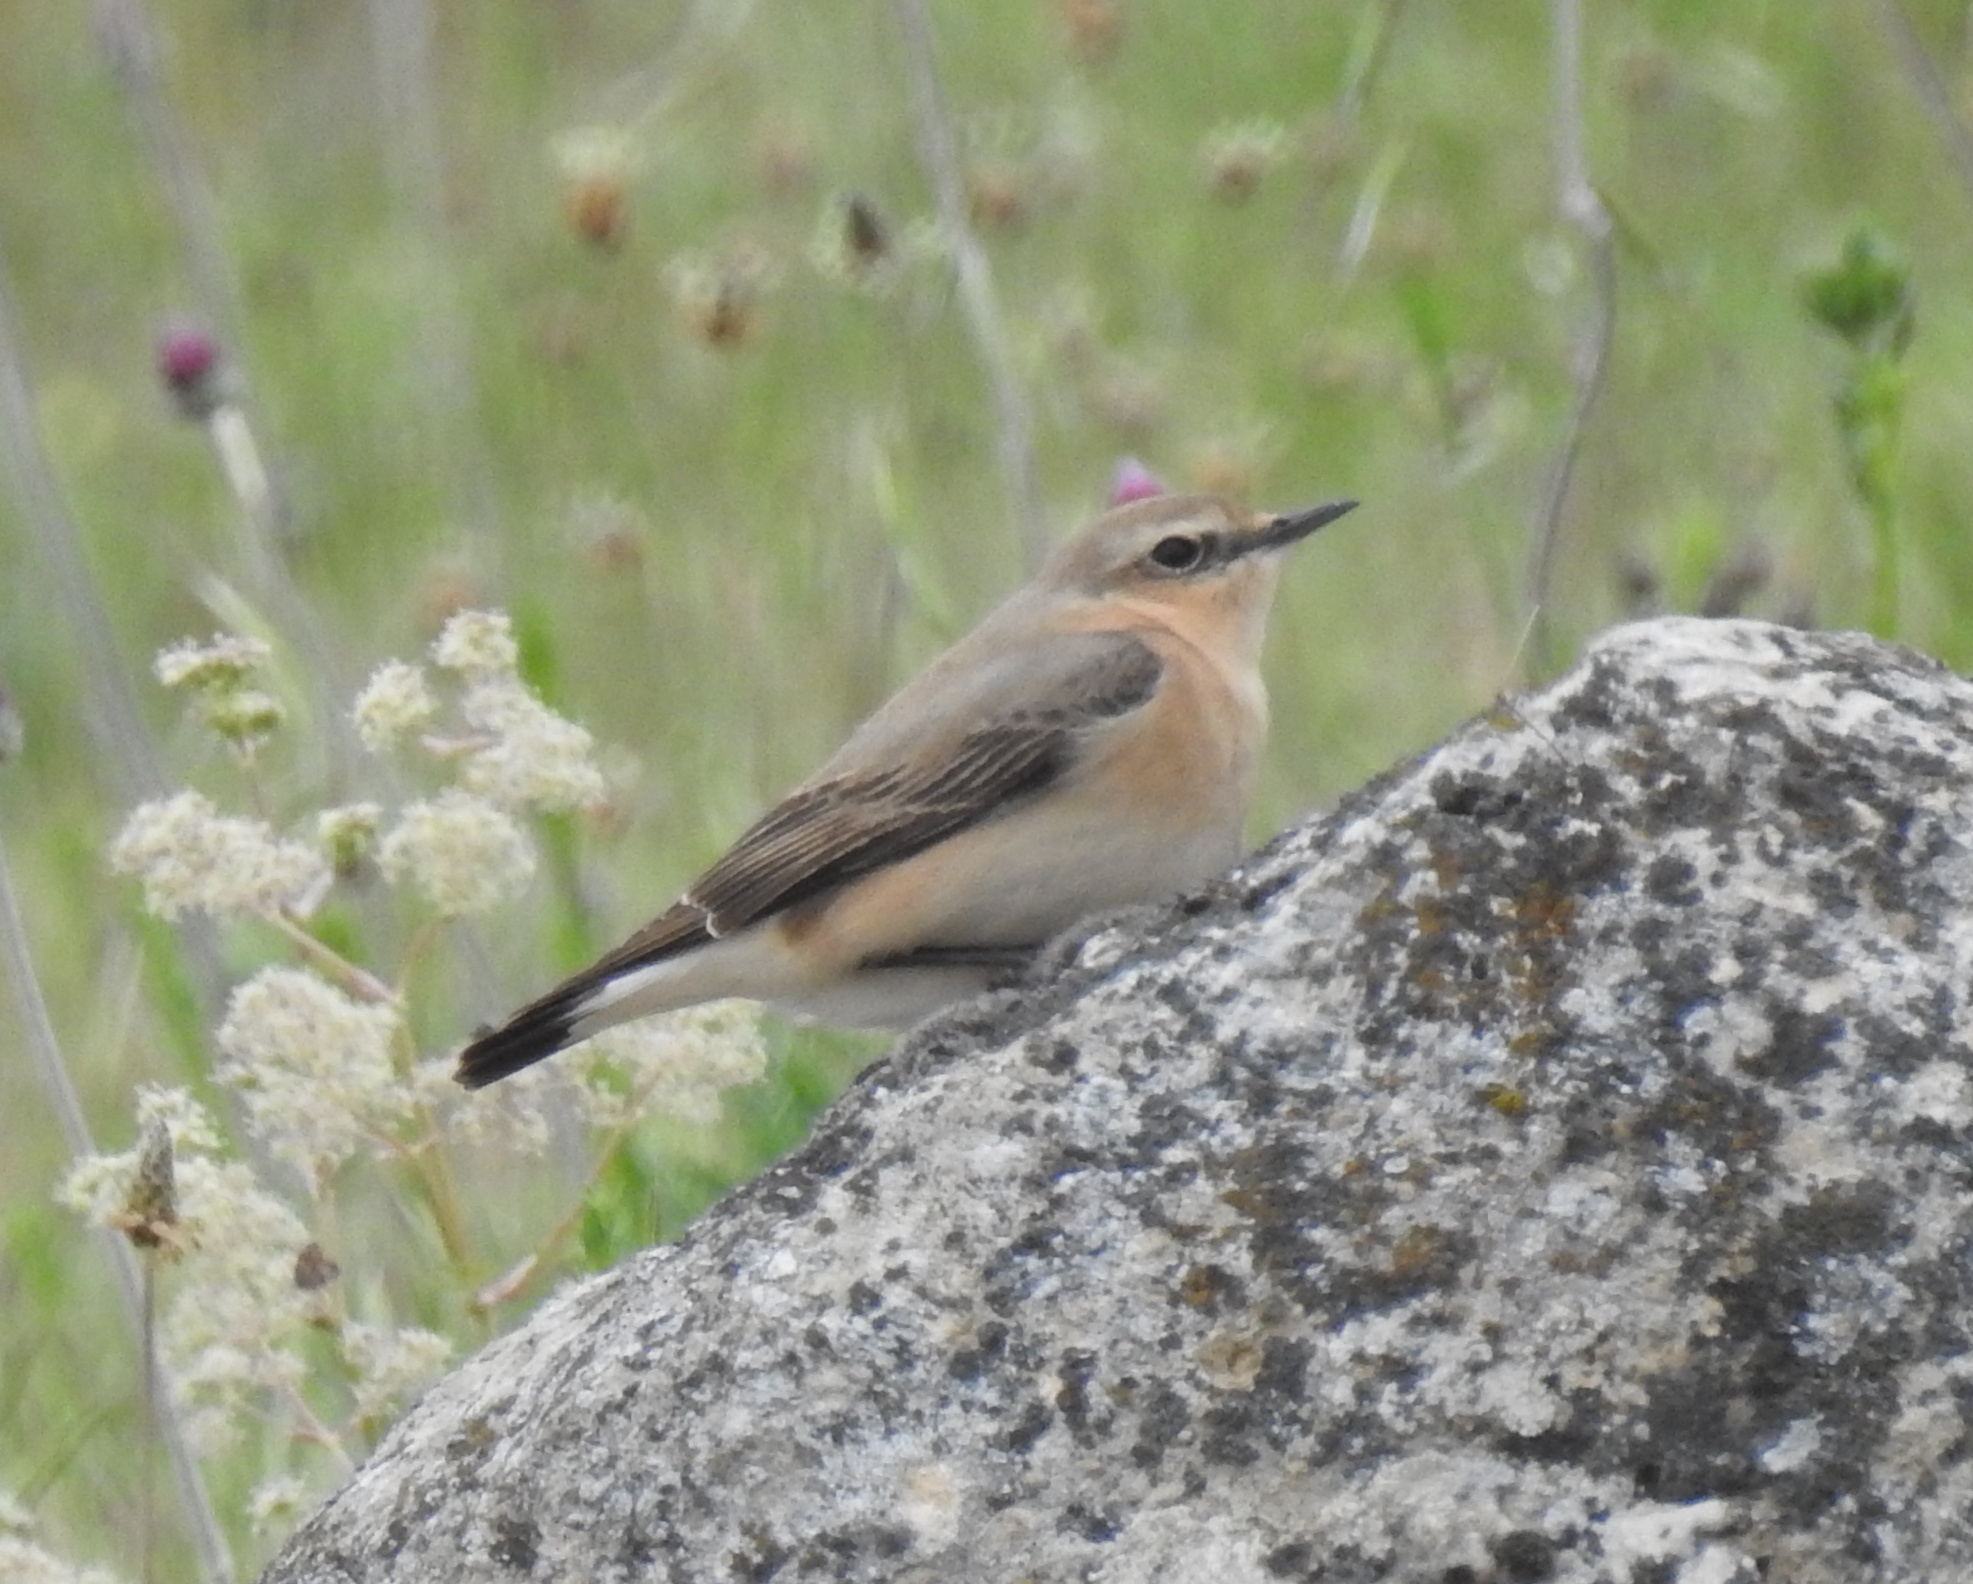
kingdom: Animalia
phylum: Chordata
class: Aves
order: Passeriformes
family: Muscicapidae
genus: Oenanthe
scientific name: Oenanthe oenanthe
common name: Northern wheatear
